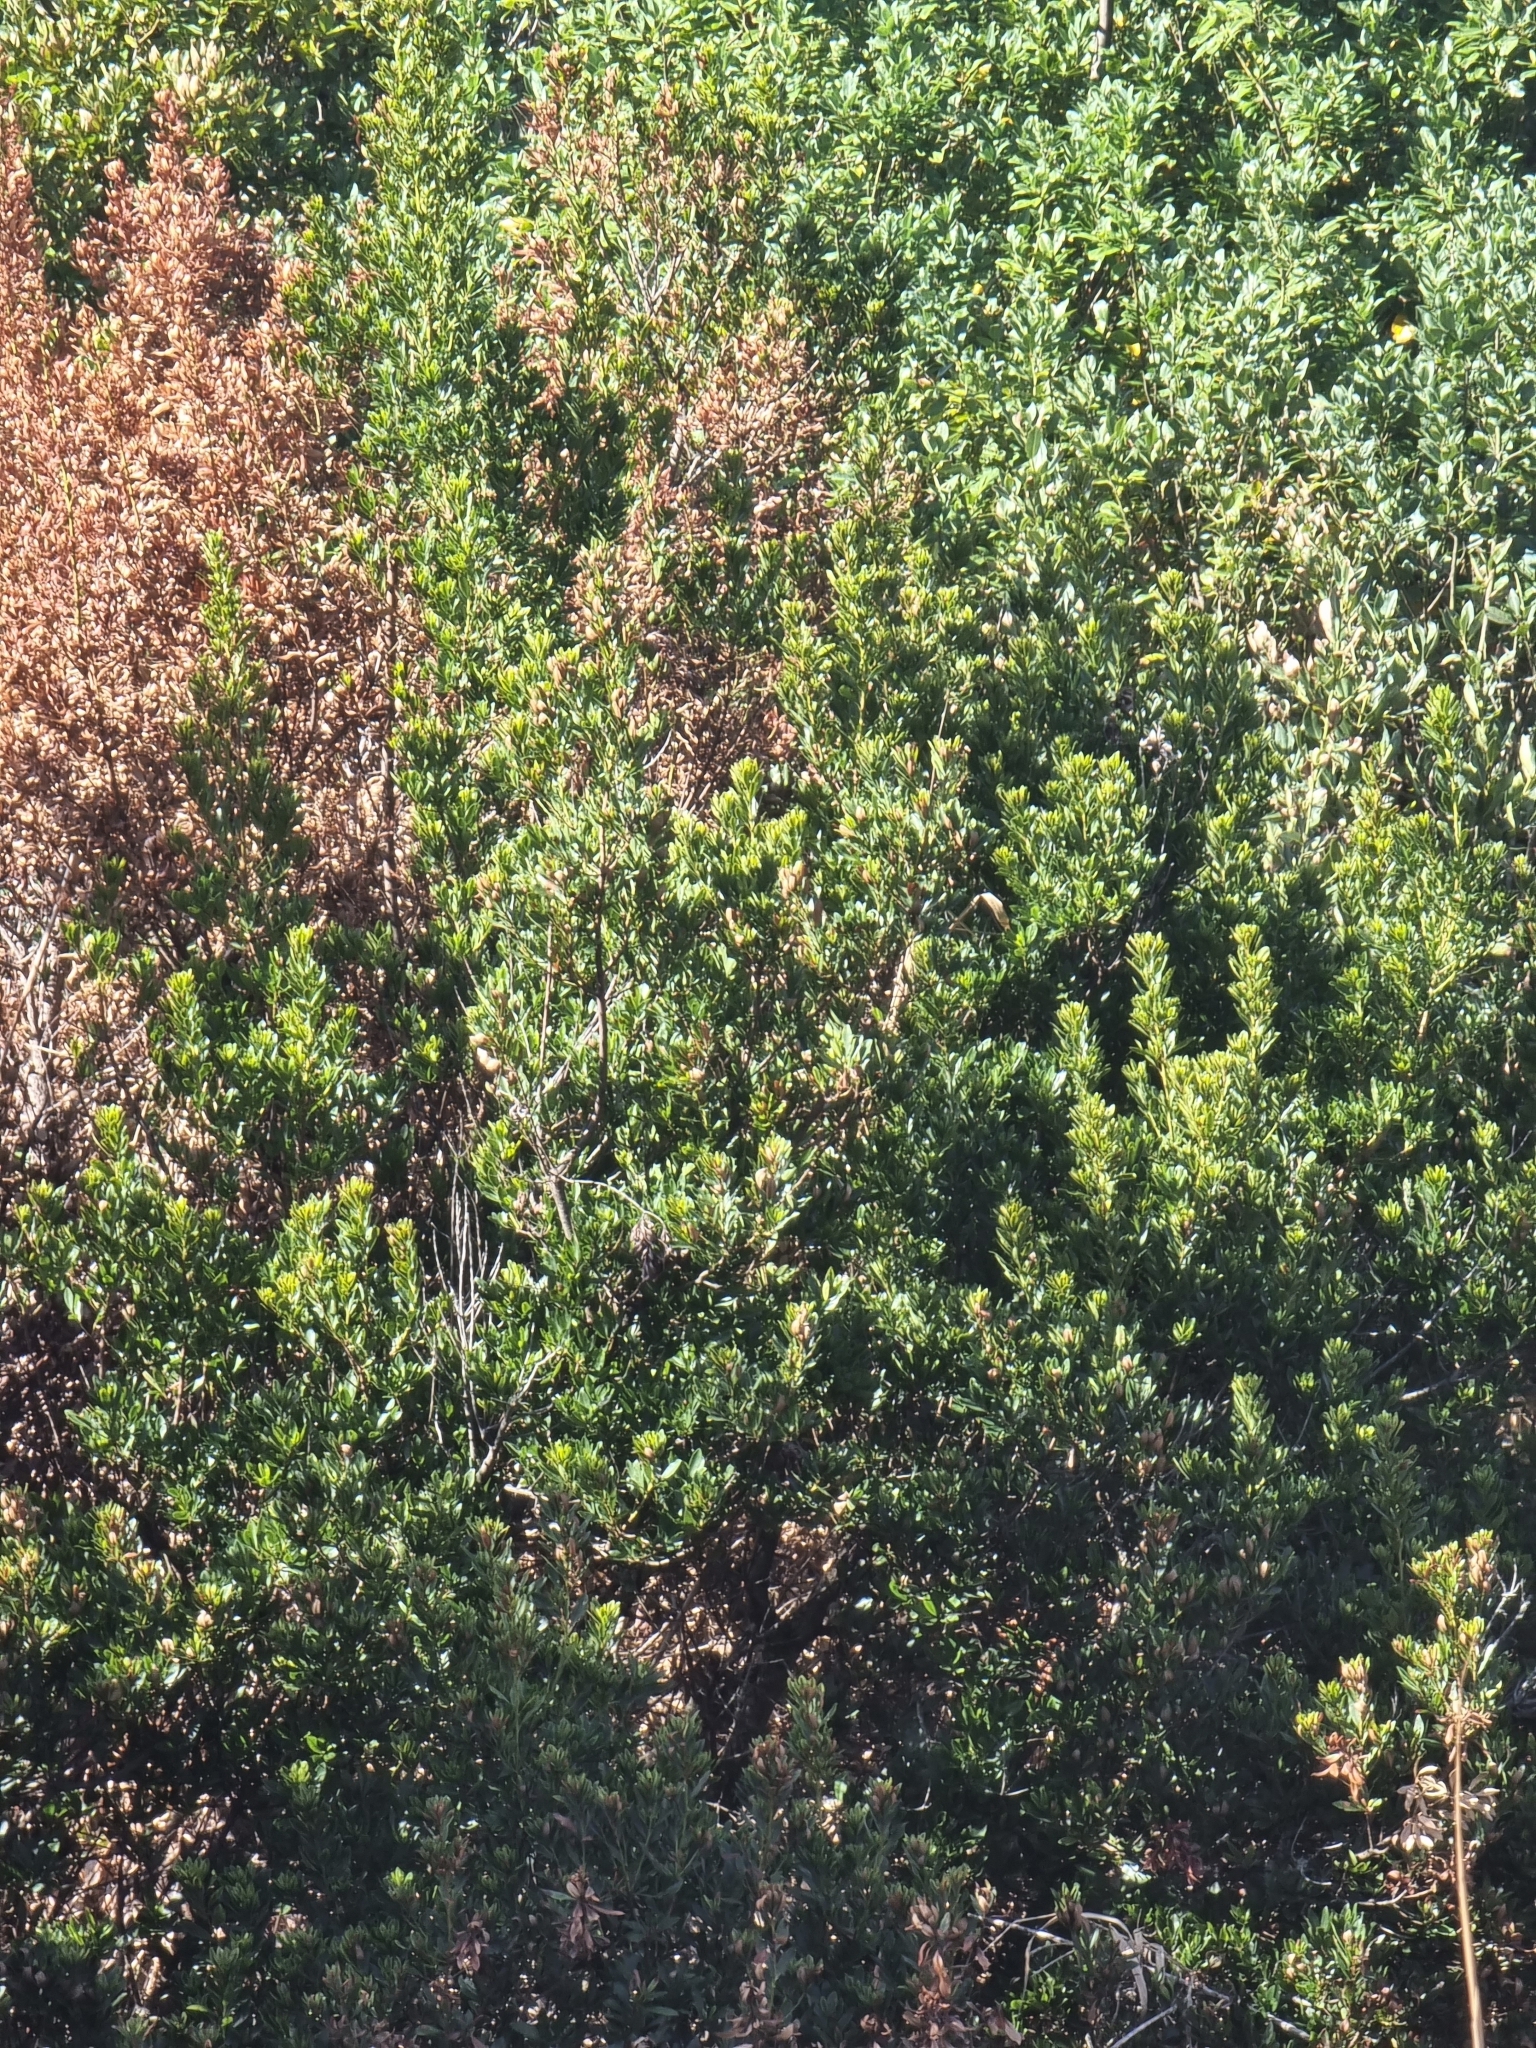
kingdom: Plantae
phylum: Tracheophyta
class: Magnoliopsida
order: Fagales
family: Myricaceae
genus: Morella
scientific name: Morella faya
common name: Firetree
